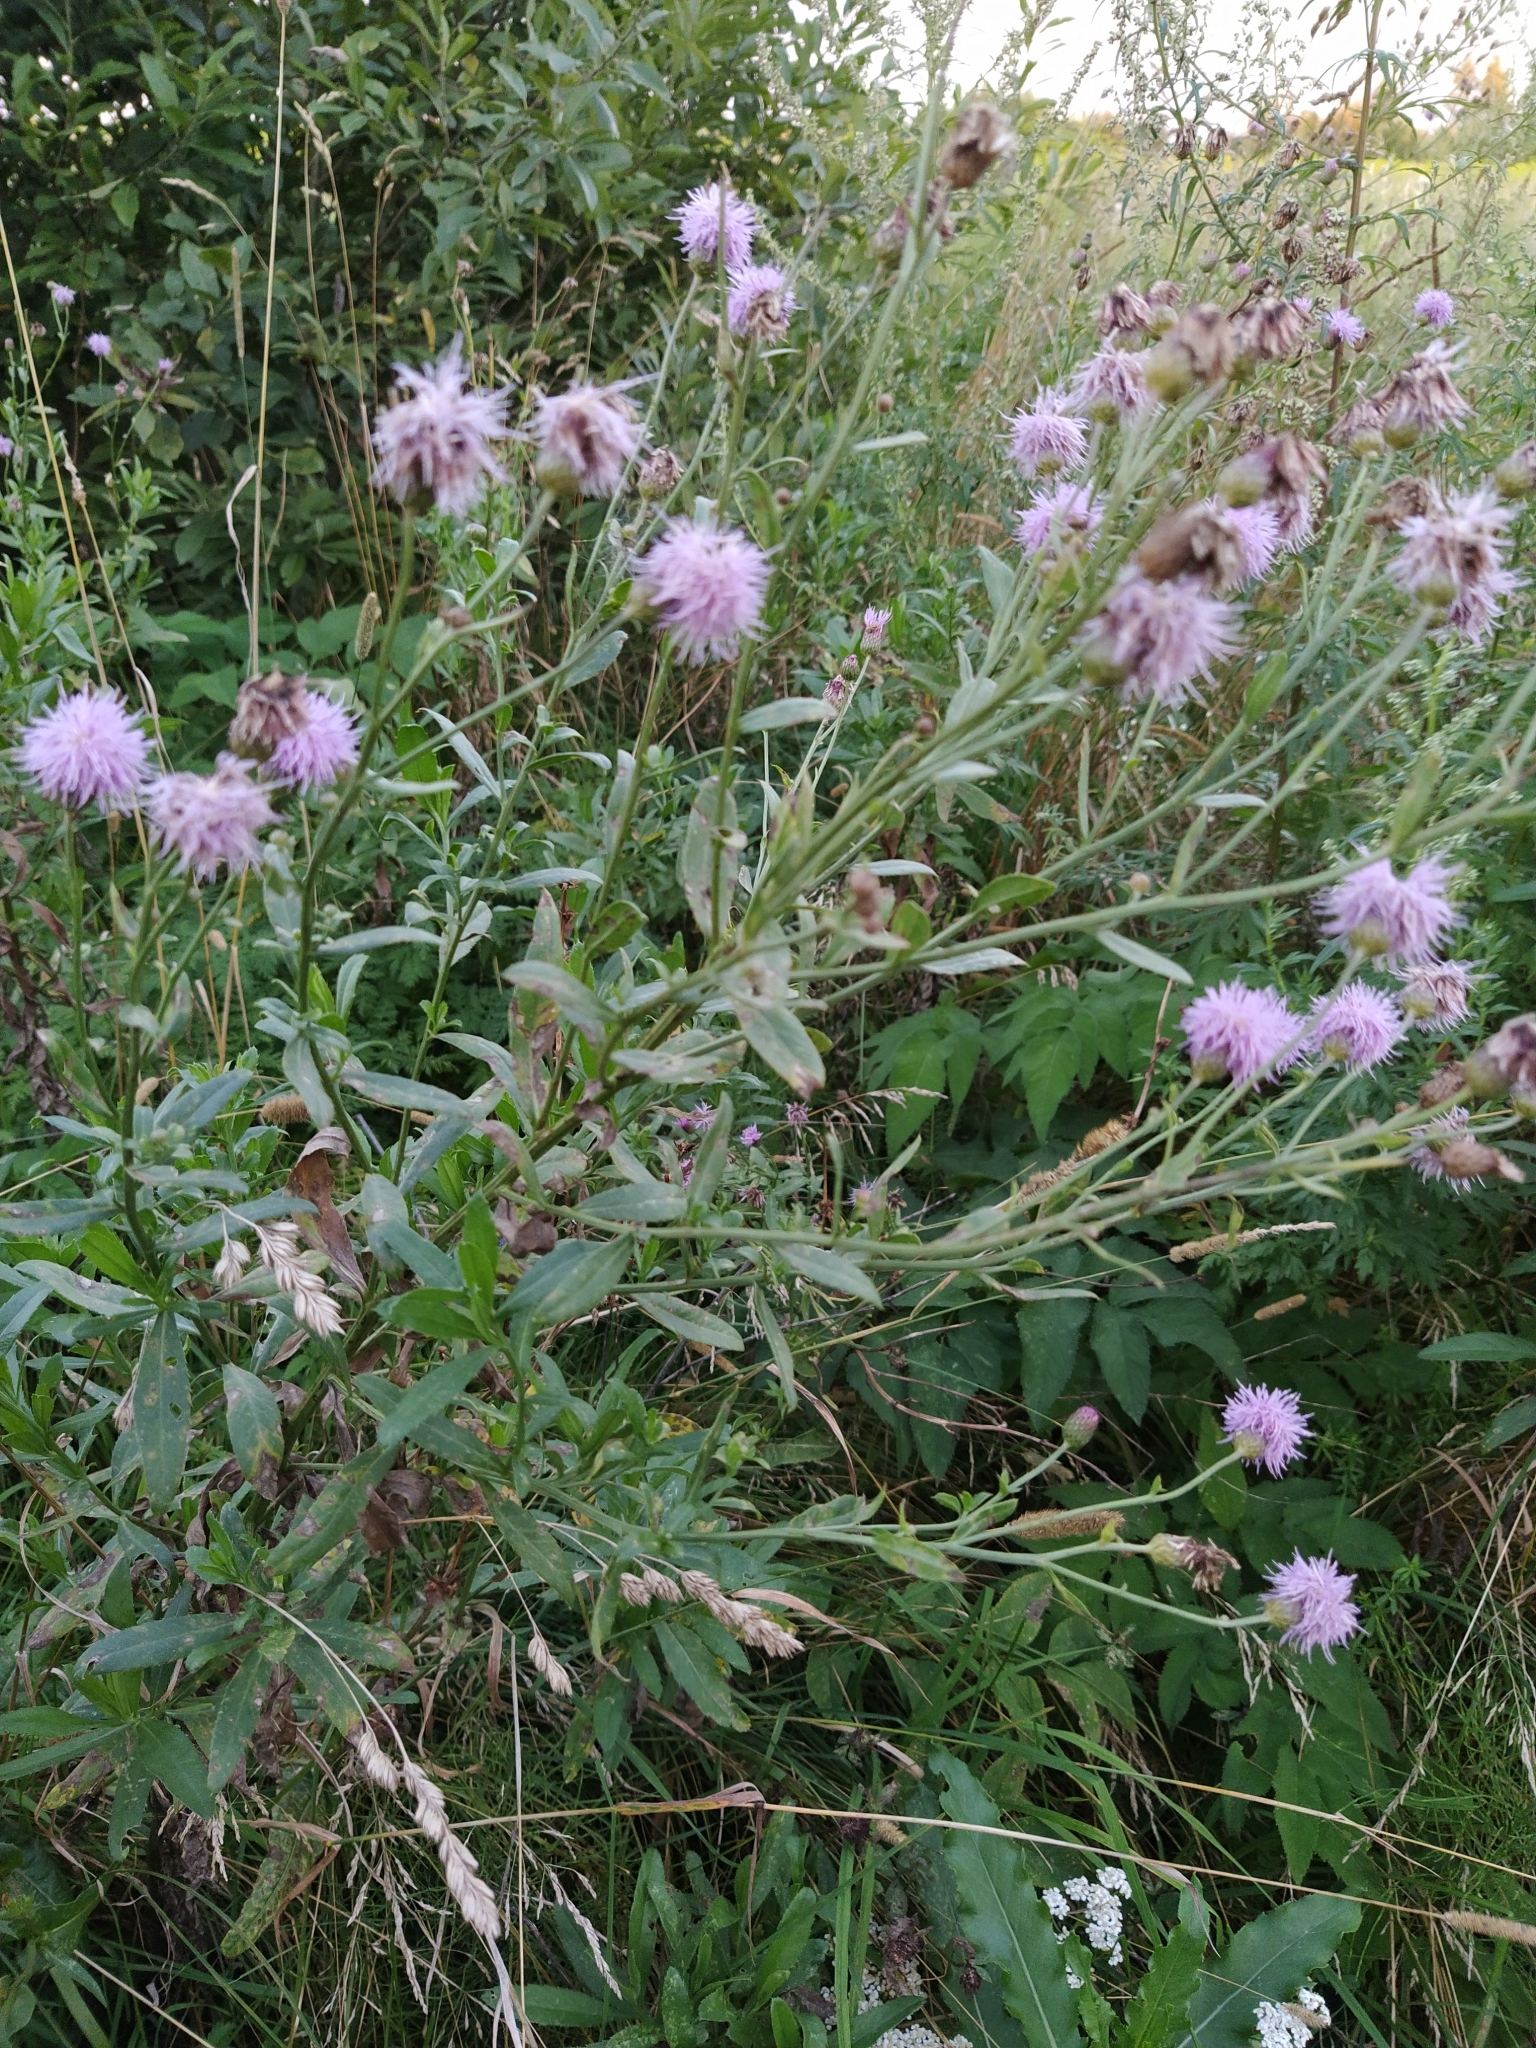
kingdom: Plantae
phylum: Tracheophyta
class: Magnoliopsida
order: Asterales
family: Asteraceae
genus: Cirsium
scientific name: Cirsium arvense
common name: Creeping thistle
